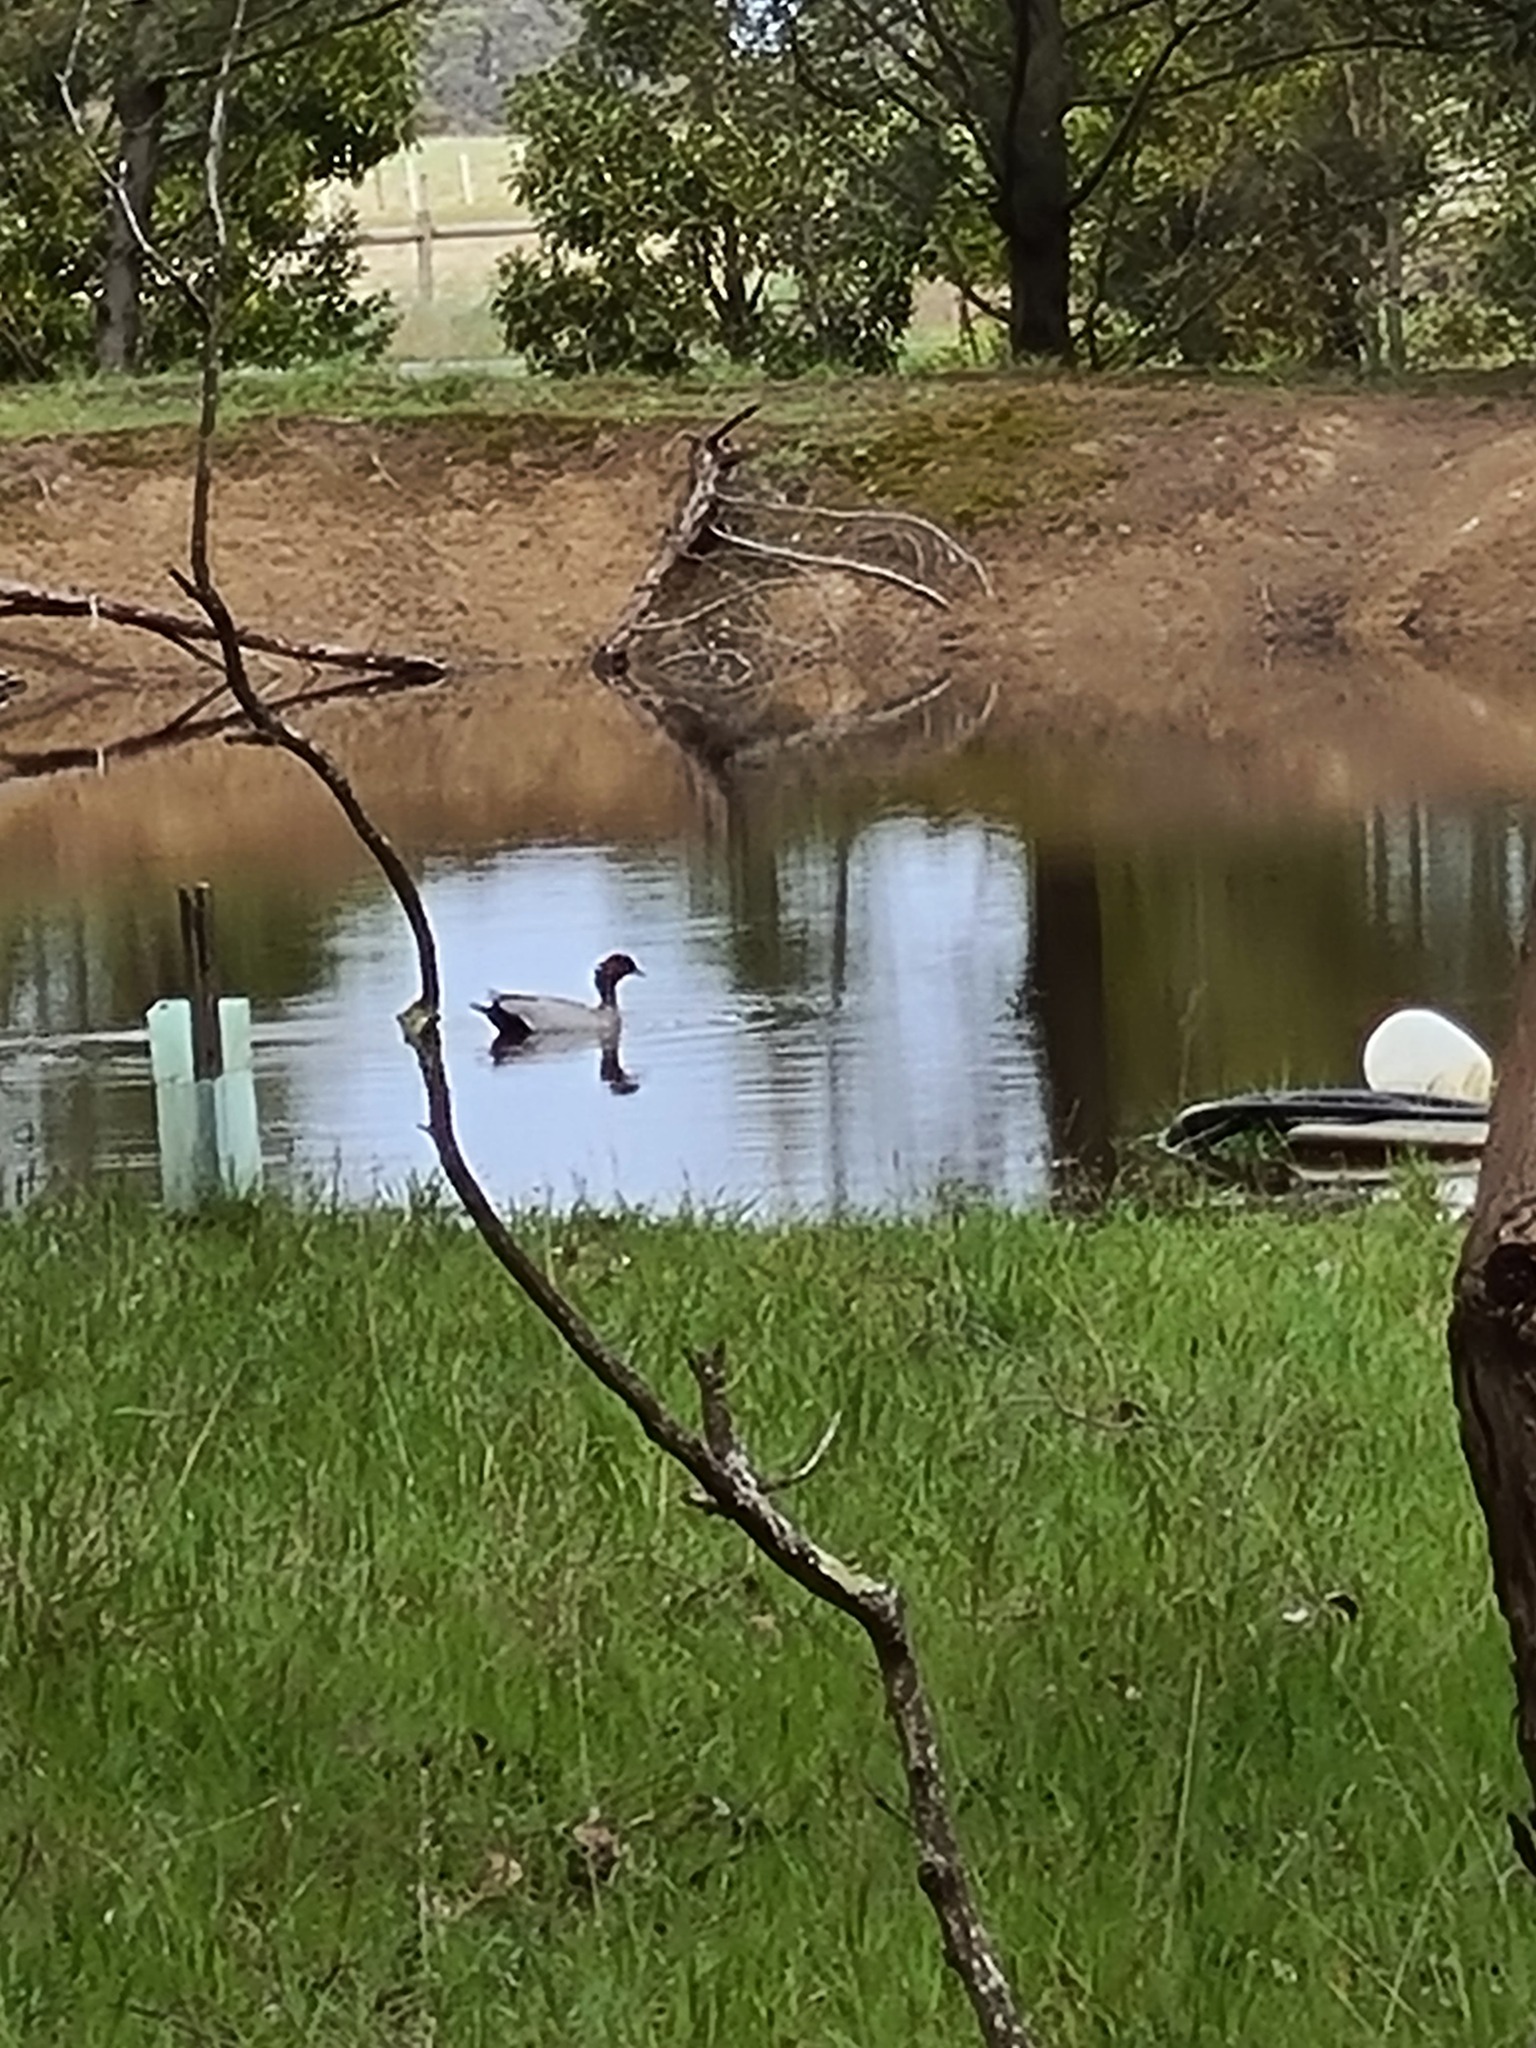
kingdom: Animalia
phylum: Chordata
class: Aves
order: Anseriformes
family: Anatidae
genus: Chenonetta
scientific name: Chenonetta jubata
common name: Maned duck
